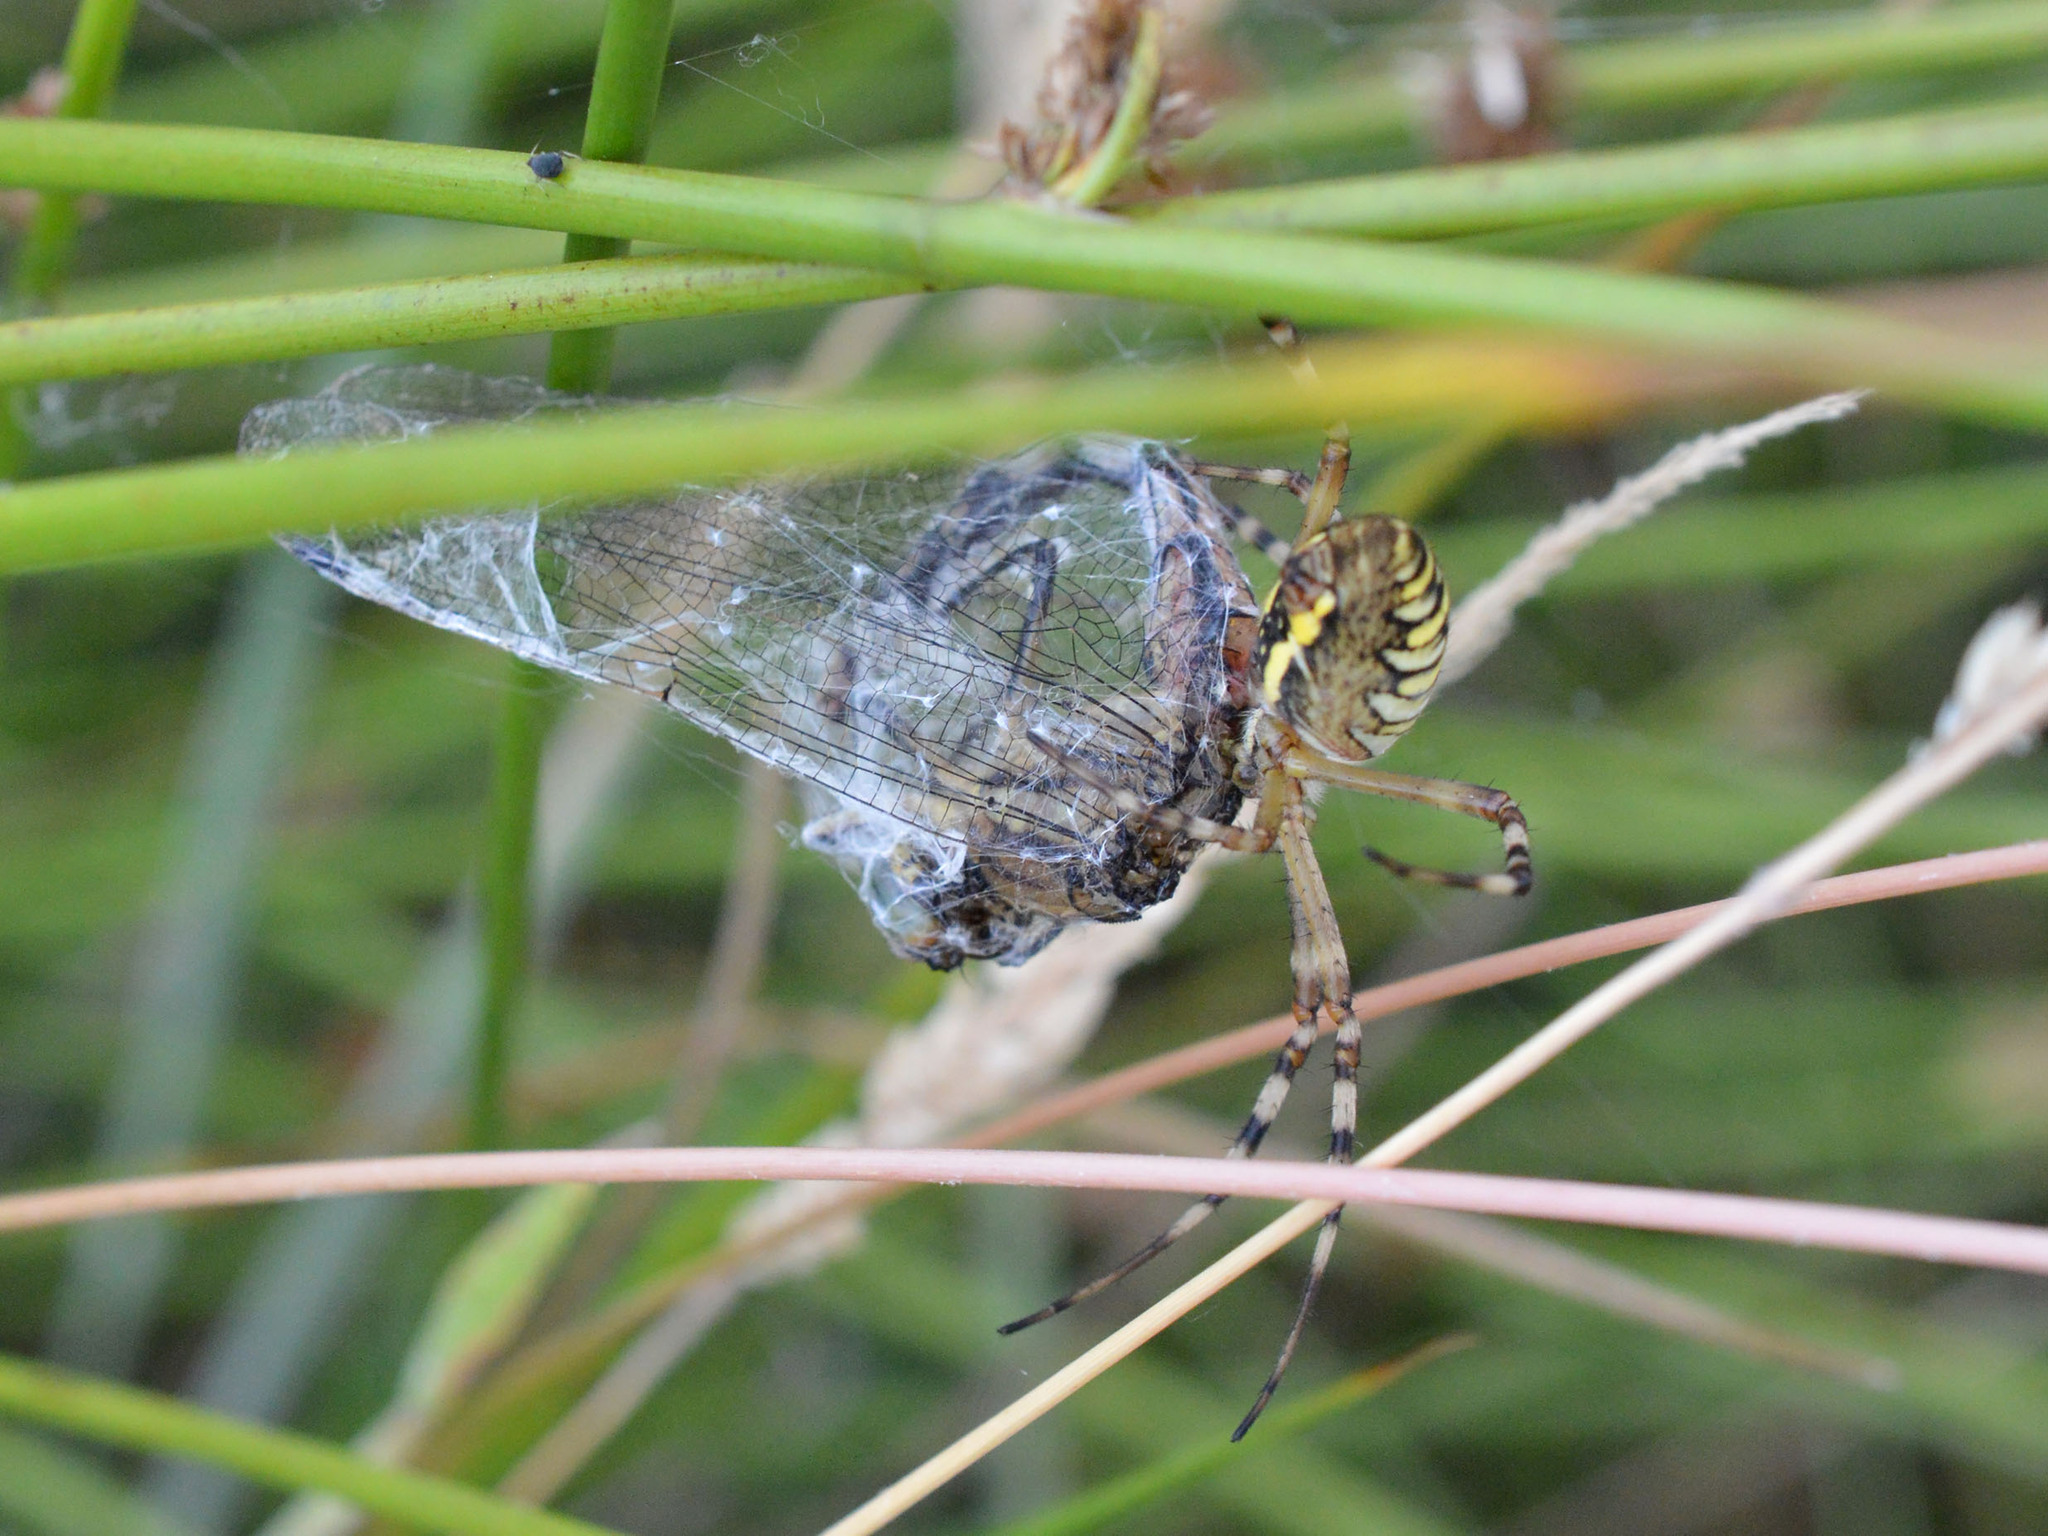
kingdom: Animalia
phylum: Arthropoda
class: Arachnida
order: Araneae
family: Araneidae
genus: Argiope
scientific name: Argiope bruennichi
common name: Wasp spider
